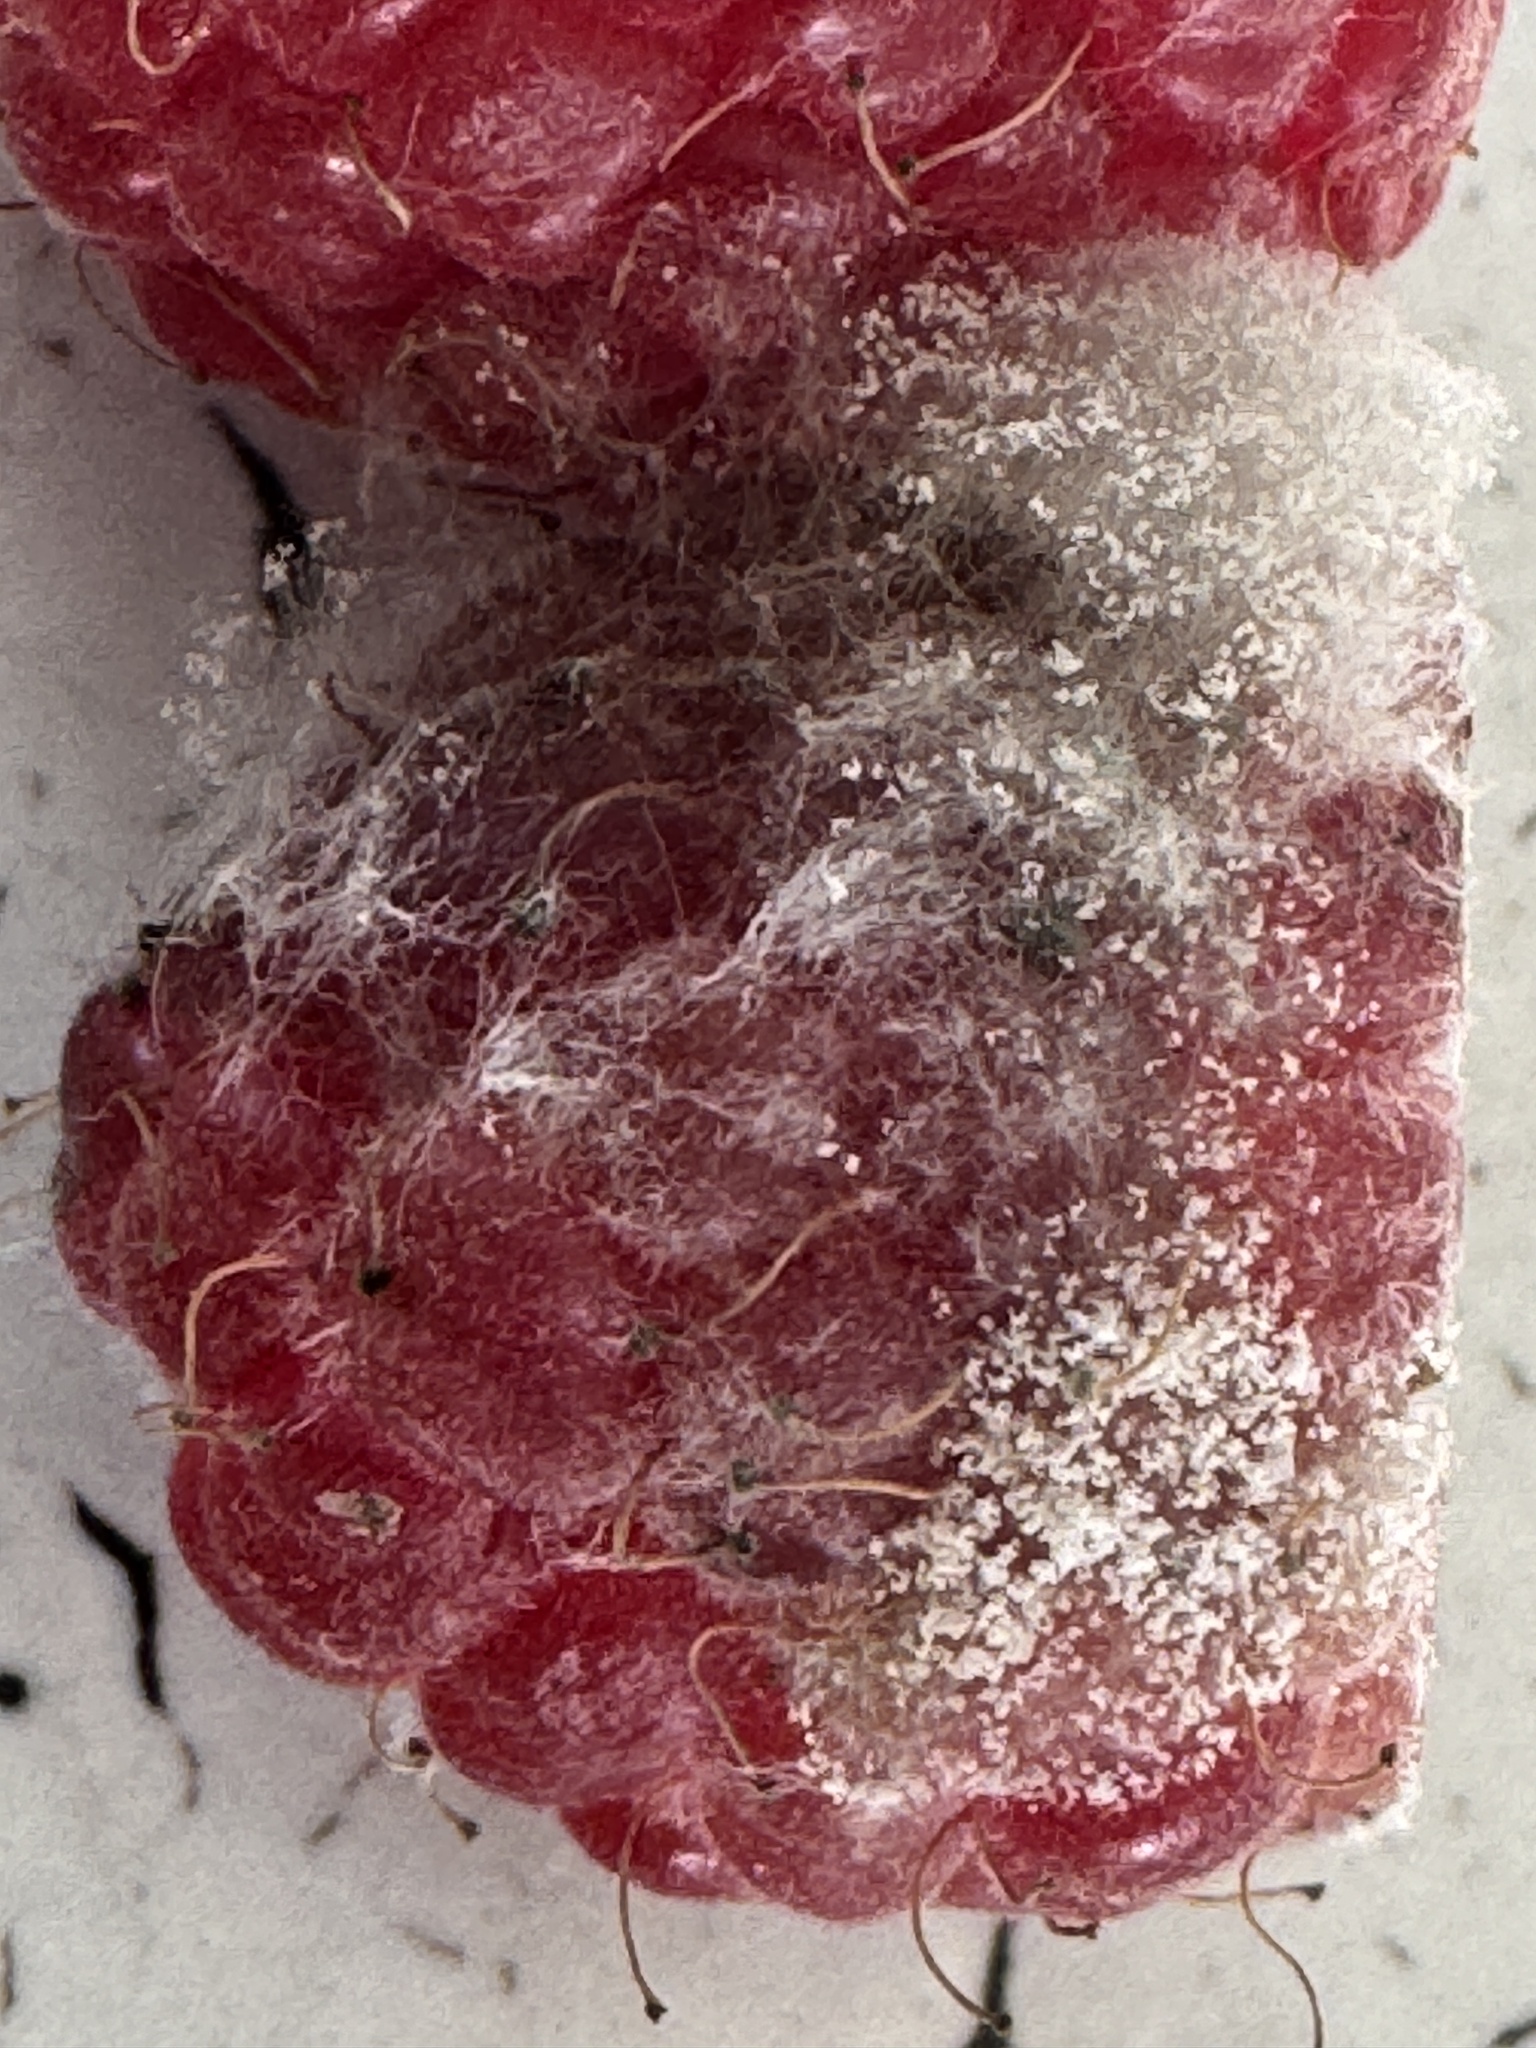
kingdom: Fungi
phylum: Ascomycota
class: Leotiomycetes
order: Helotiales
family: Sclerotiniaceae
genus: Botrytis
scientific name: Botrytis cinerea
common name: Grey mould
